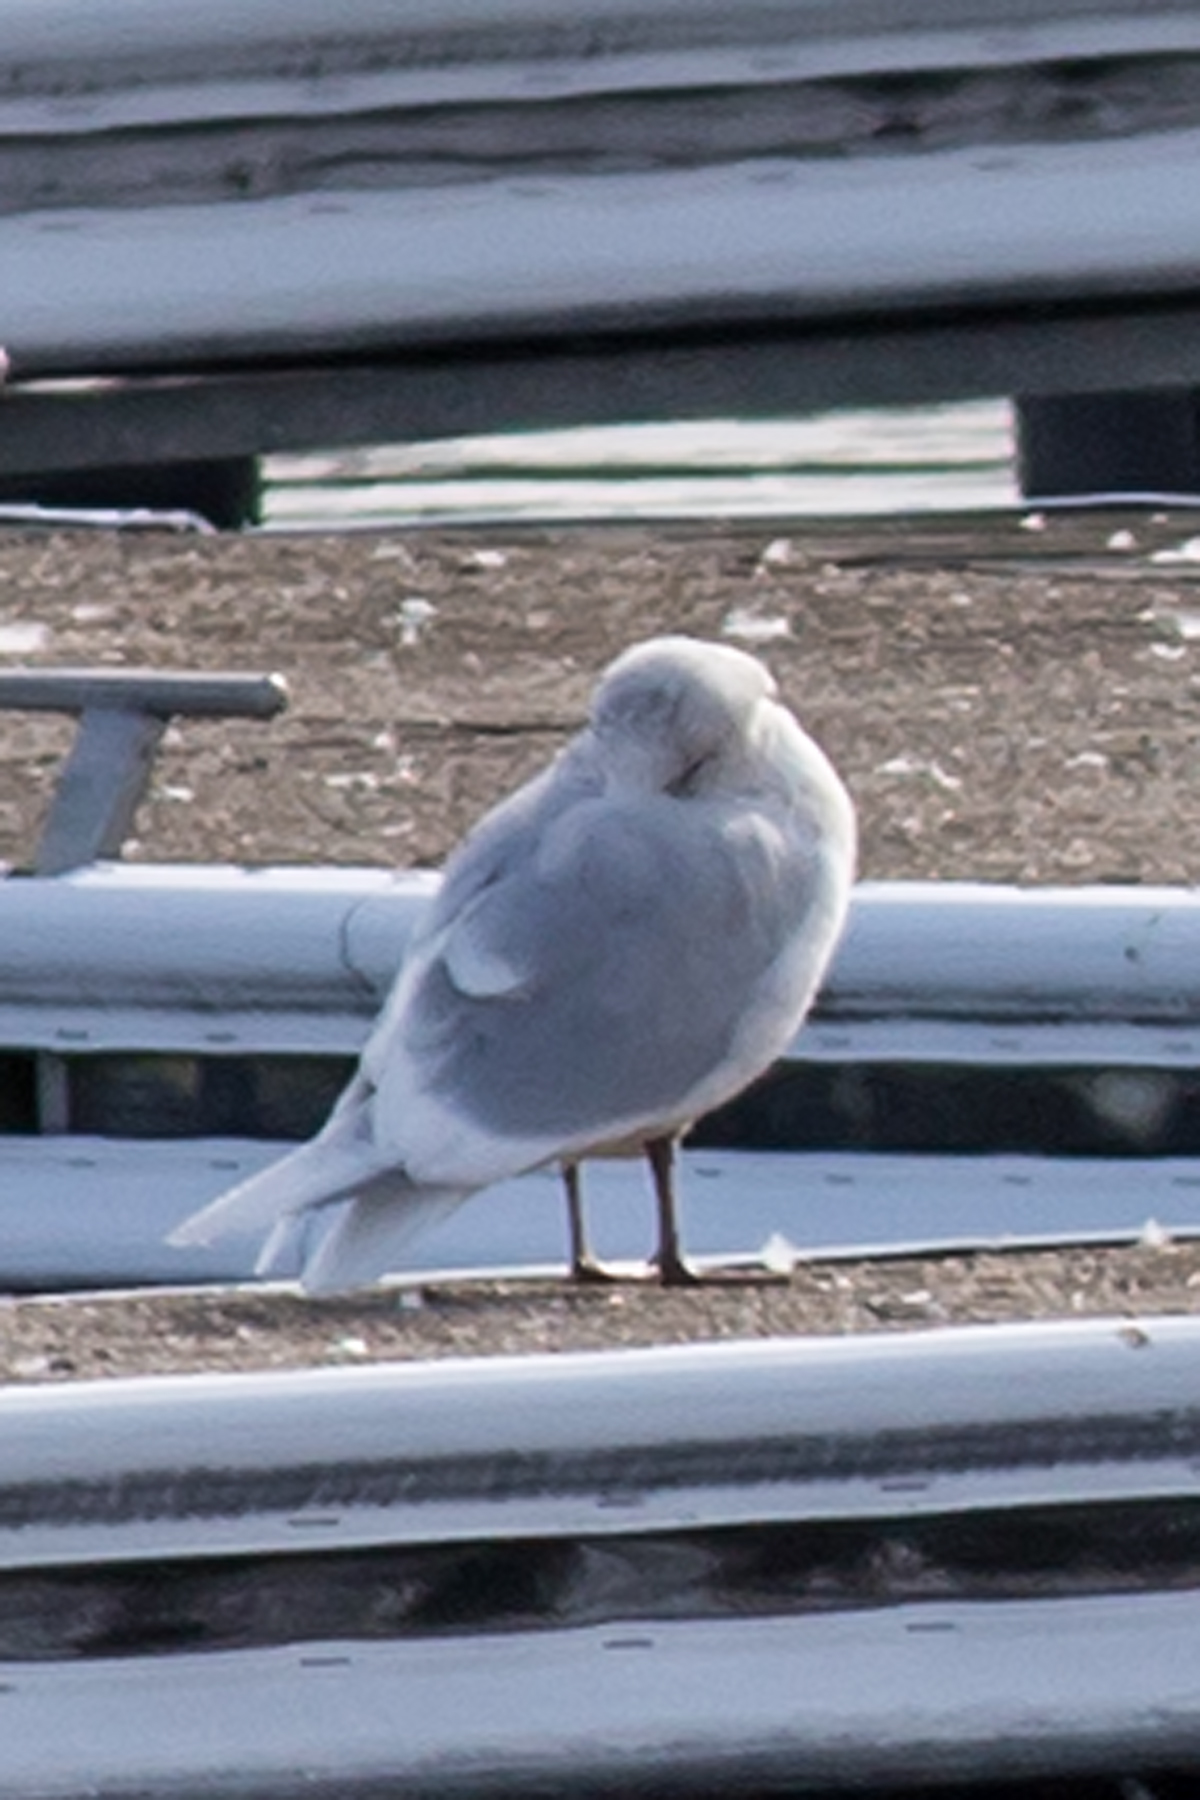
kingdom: Animalia
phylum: Chordata
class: Aves
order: Charadriiformes
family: Laridae
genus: Larus
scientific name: Larus glaucoides
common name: Iceland gull
